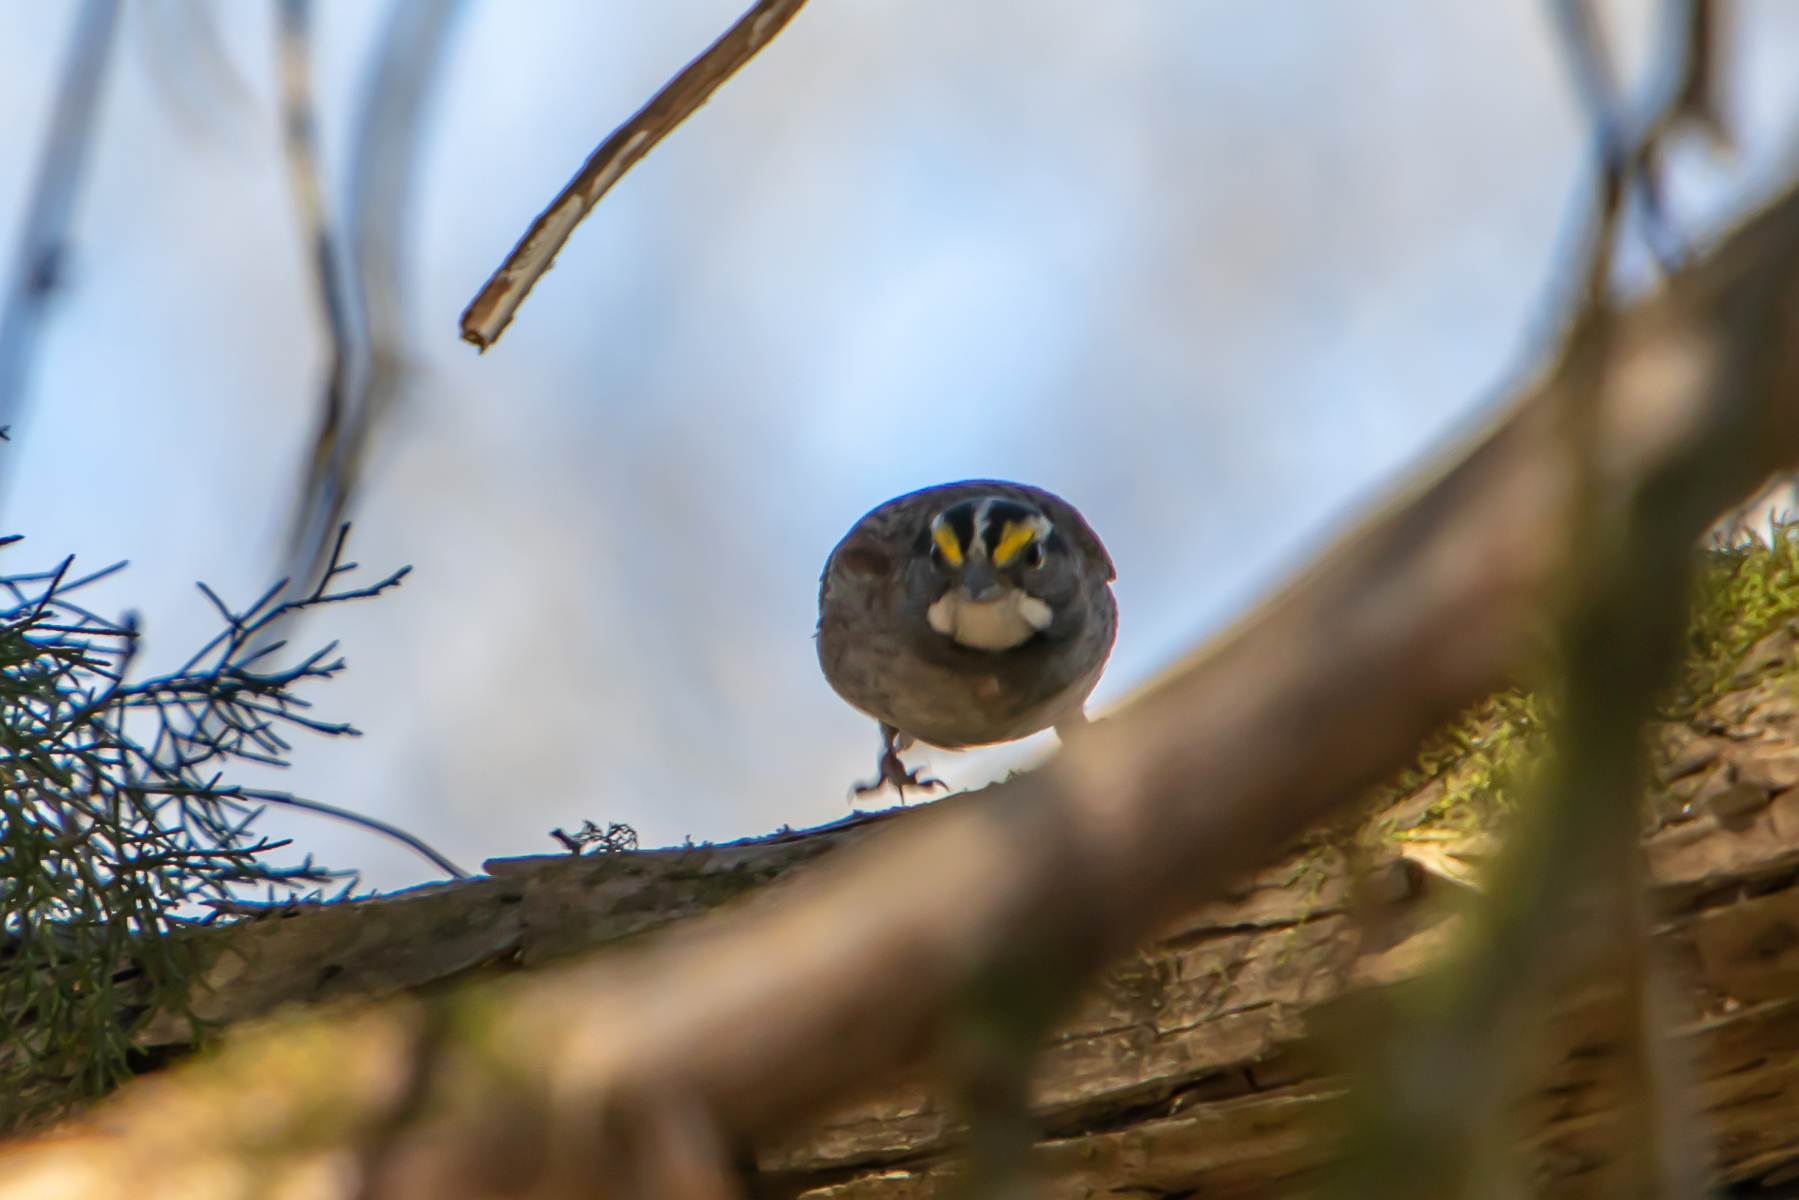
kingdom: Animalia
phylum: Chordata
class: Aves
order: Passeriformes
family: Passerellidae
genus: Zonotrichia
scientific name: Zonotrichia albicollis
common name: White-throated sparrow
